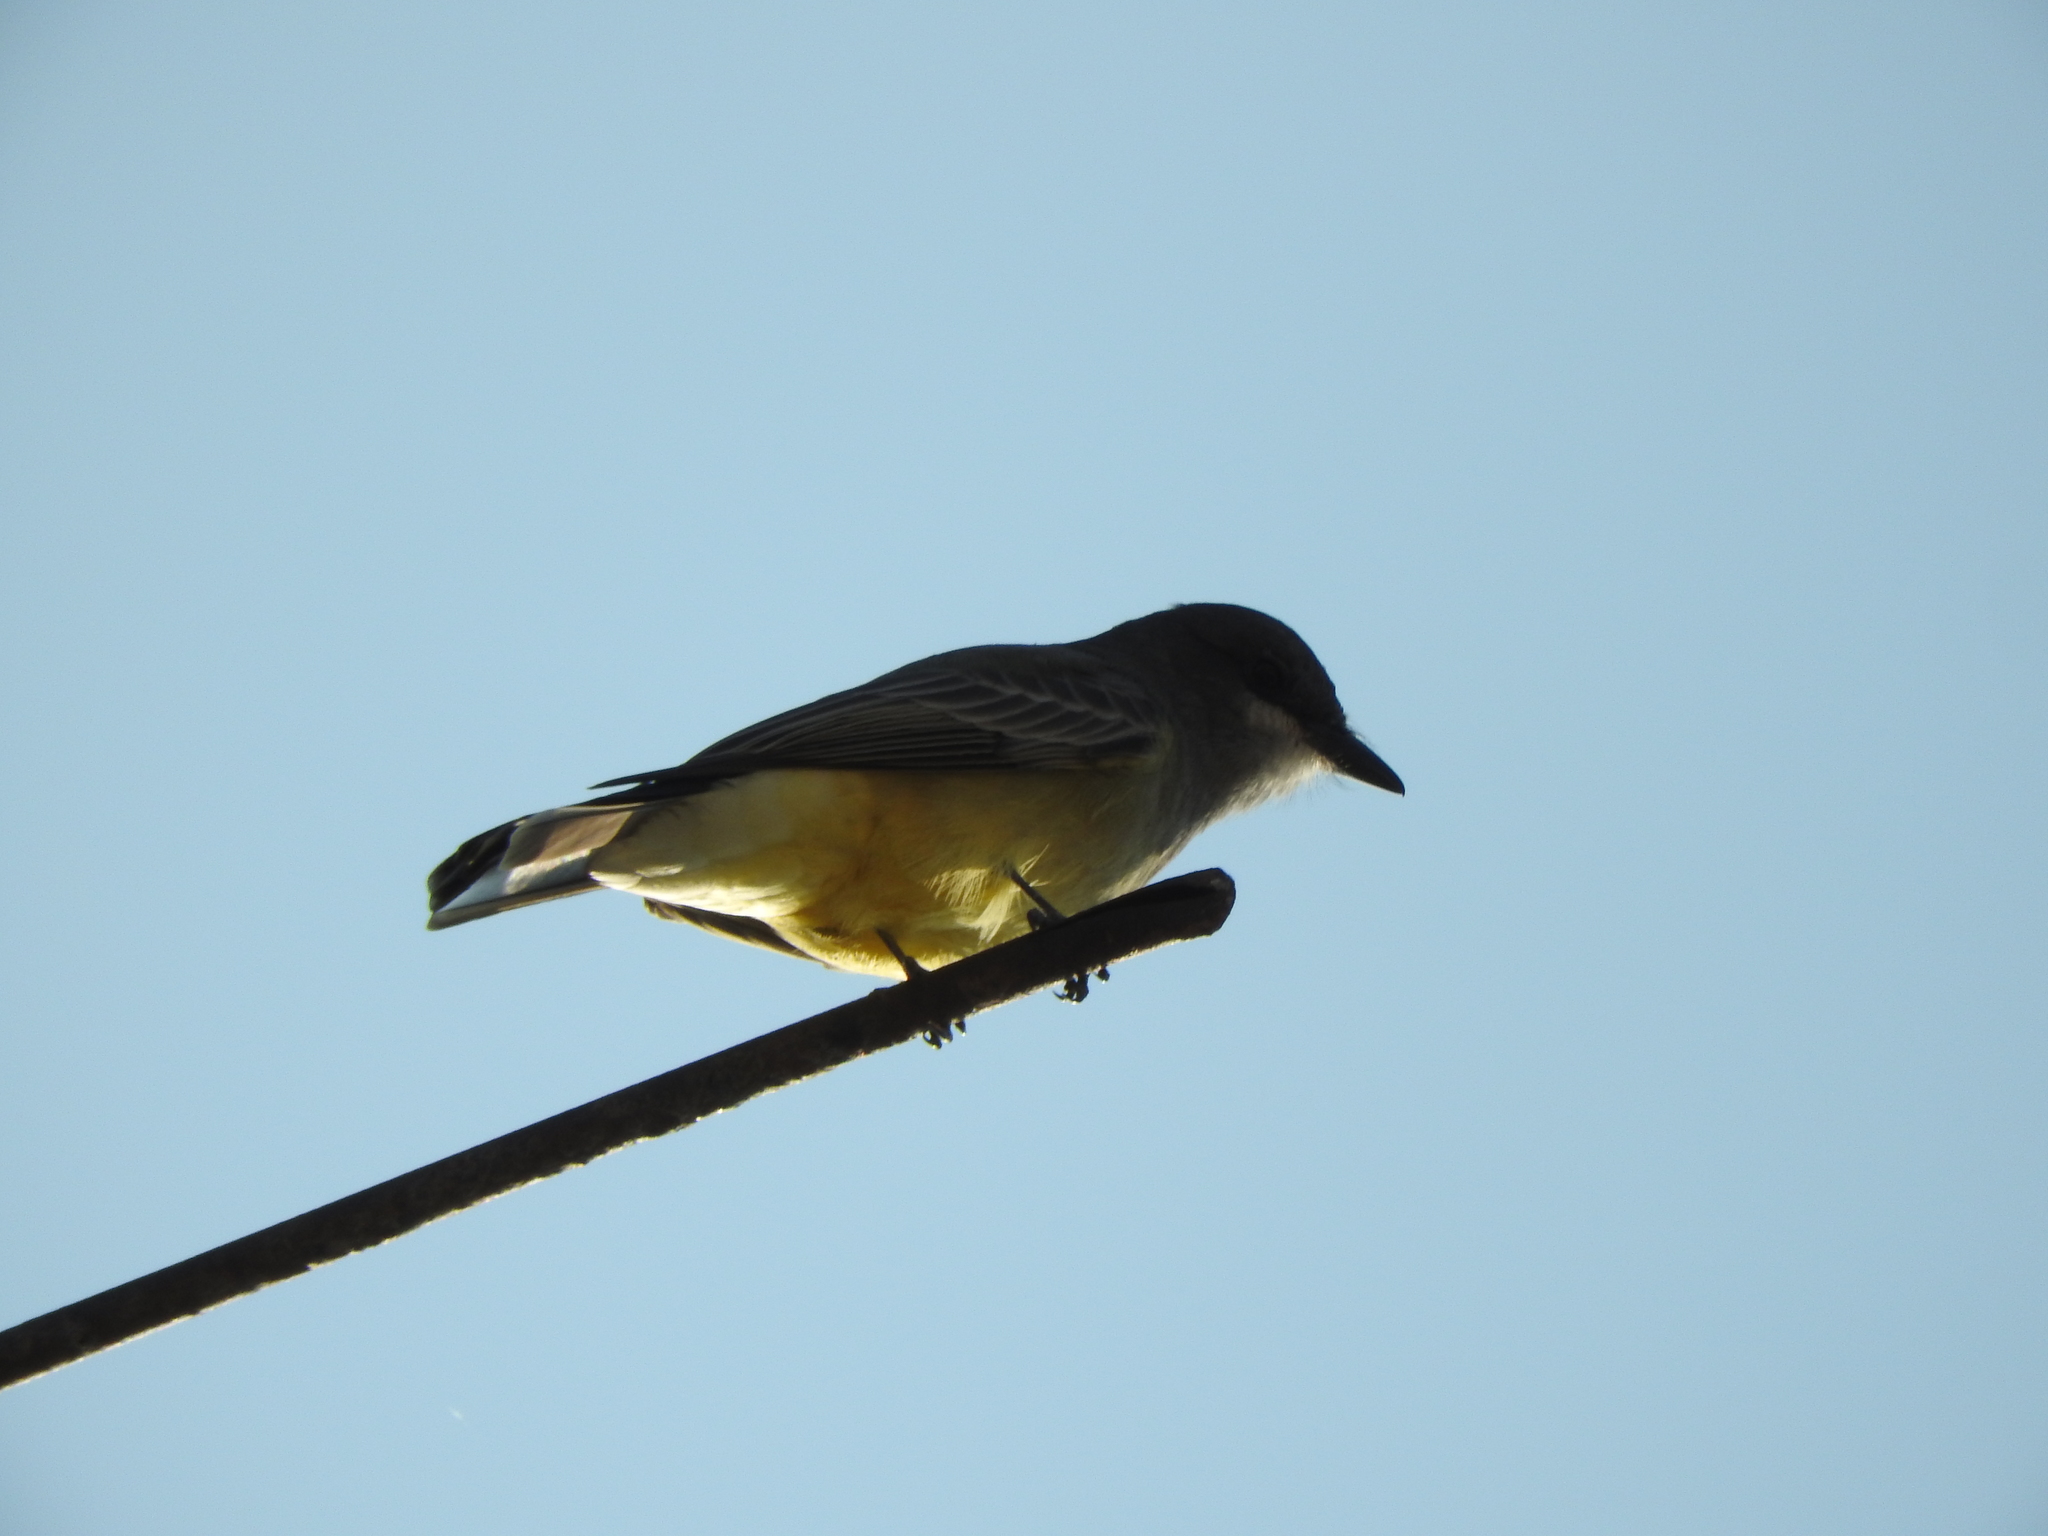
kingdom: Animalia
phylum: Chordata
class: Aves
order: Passeriformes
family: Tyrannidae
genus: Tyrannus
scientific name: Tyrannus vociferans
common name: Cassin's kingbird
